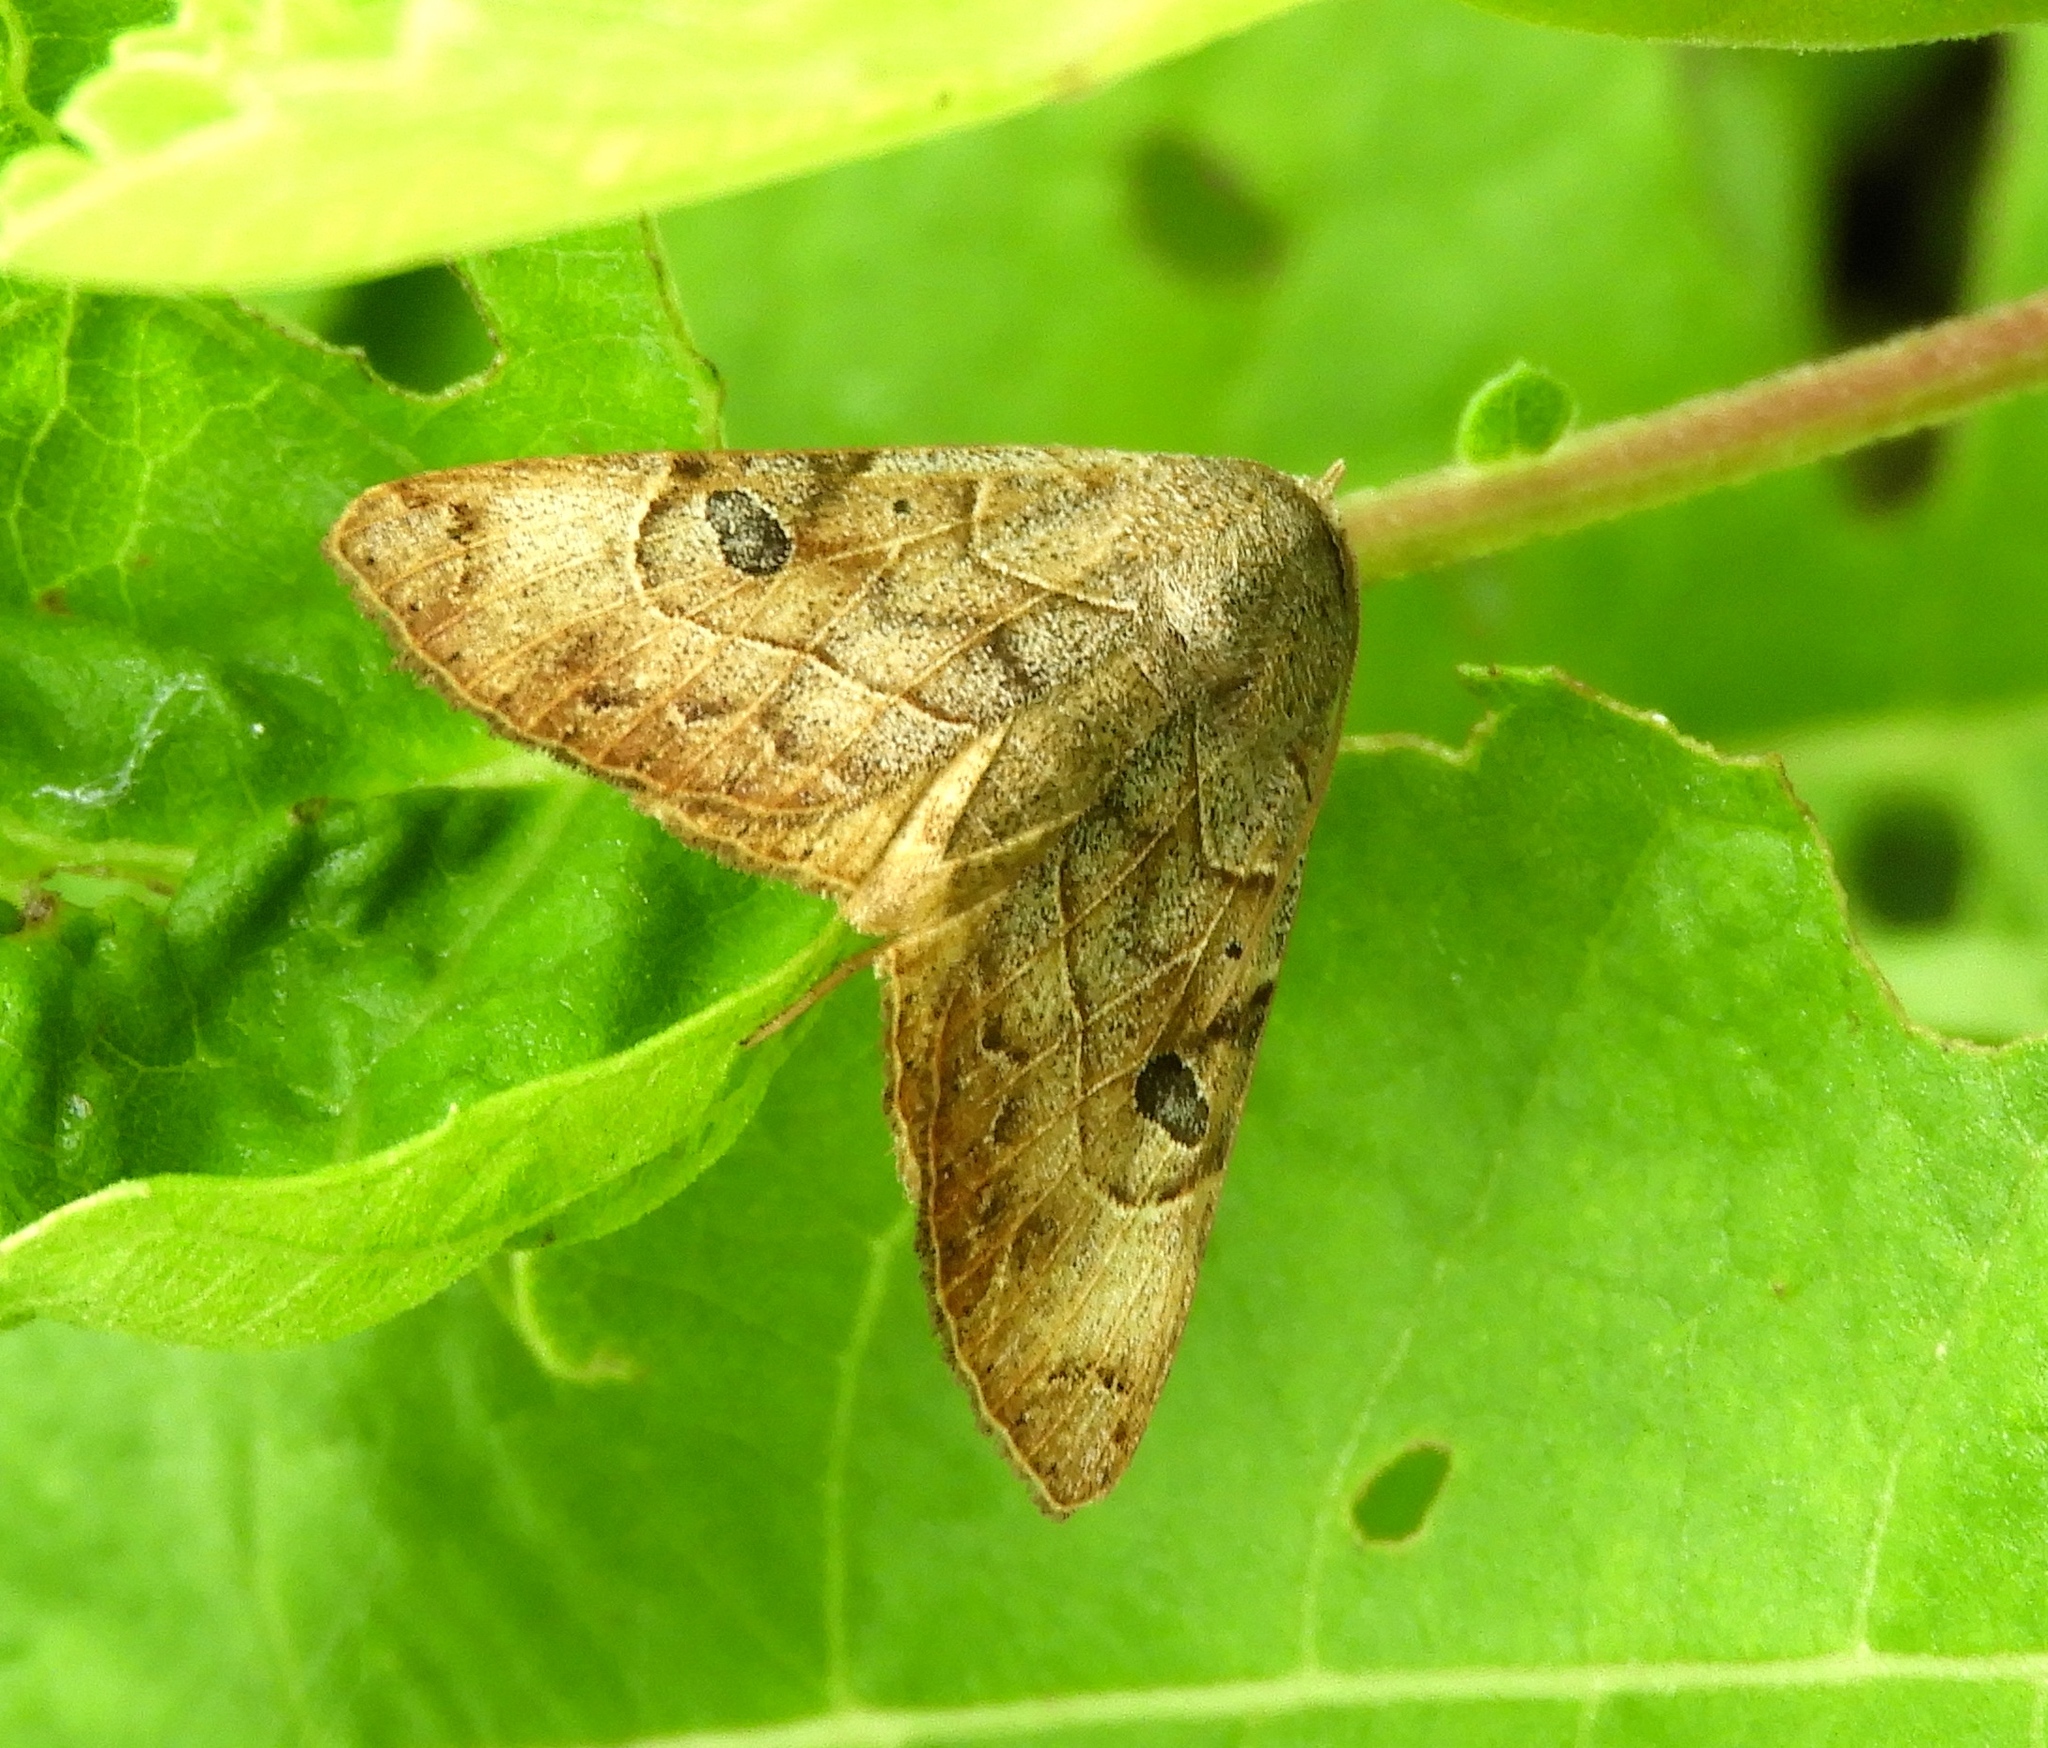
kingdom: Animalia
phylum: Arthropoda
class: Insecta
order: Lepidoptera
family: Erebidae
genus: Isogona
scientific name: Isogona scindens
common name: Owlet moth
